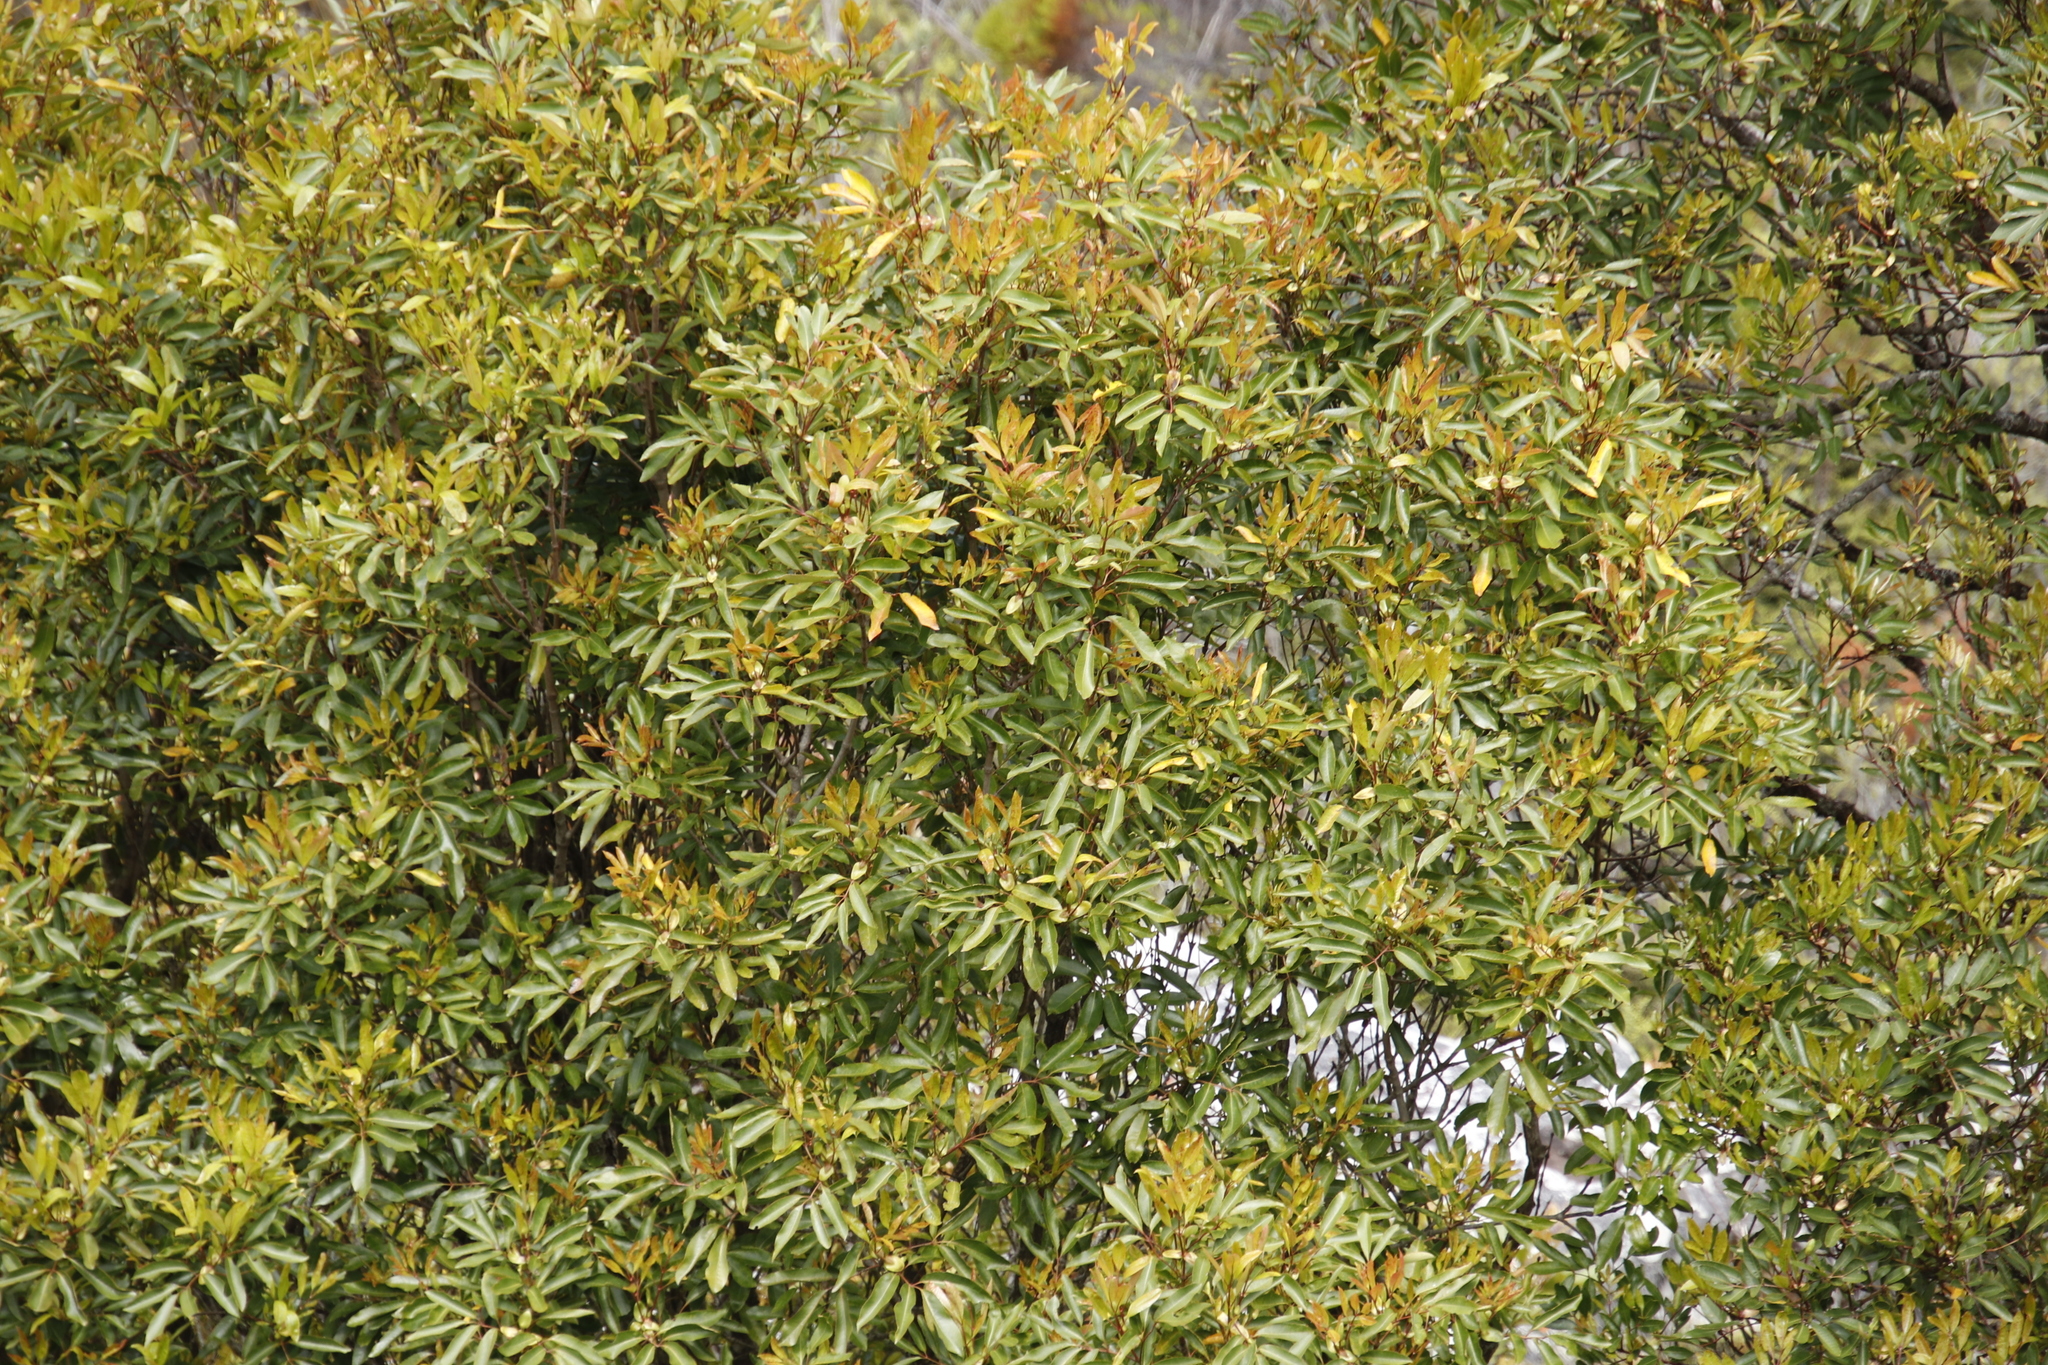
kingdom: Plantae
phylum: Tracheophyta
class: Magnoliopsida
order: Oxalidales
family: Cunoniaceae
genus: Cunonia
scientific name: Cunonia capensis
